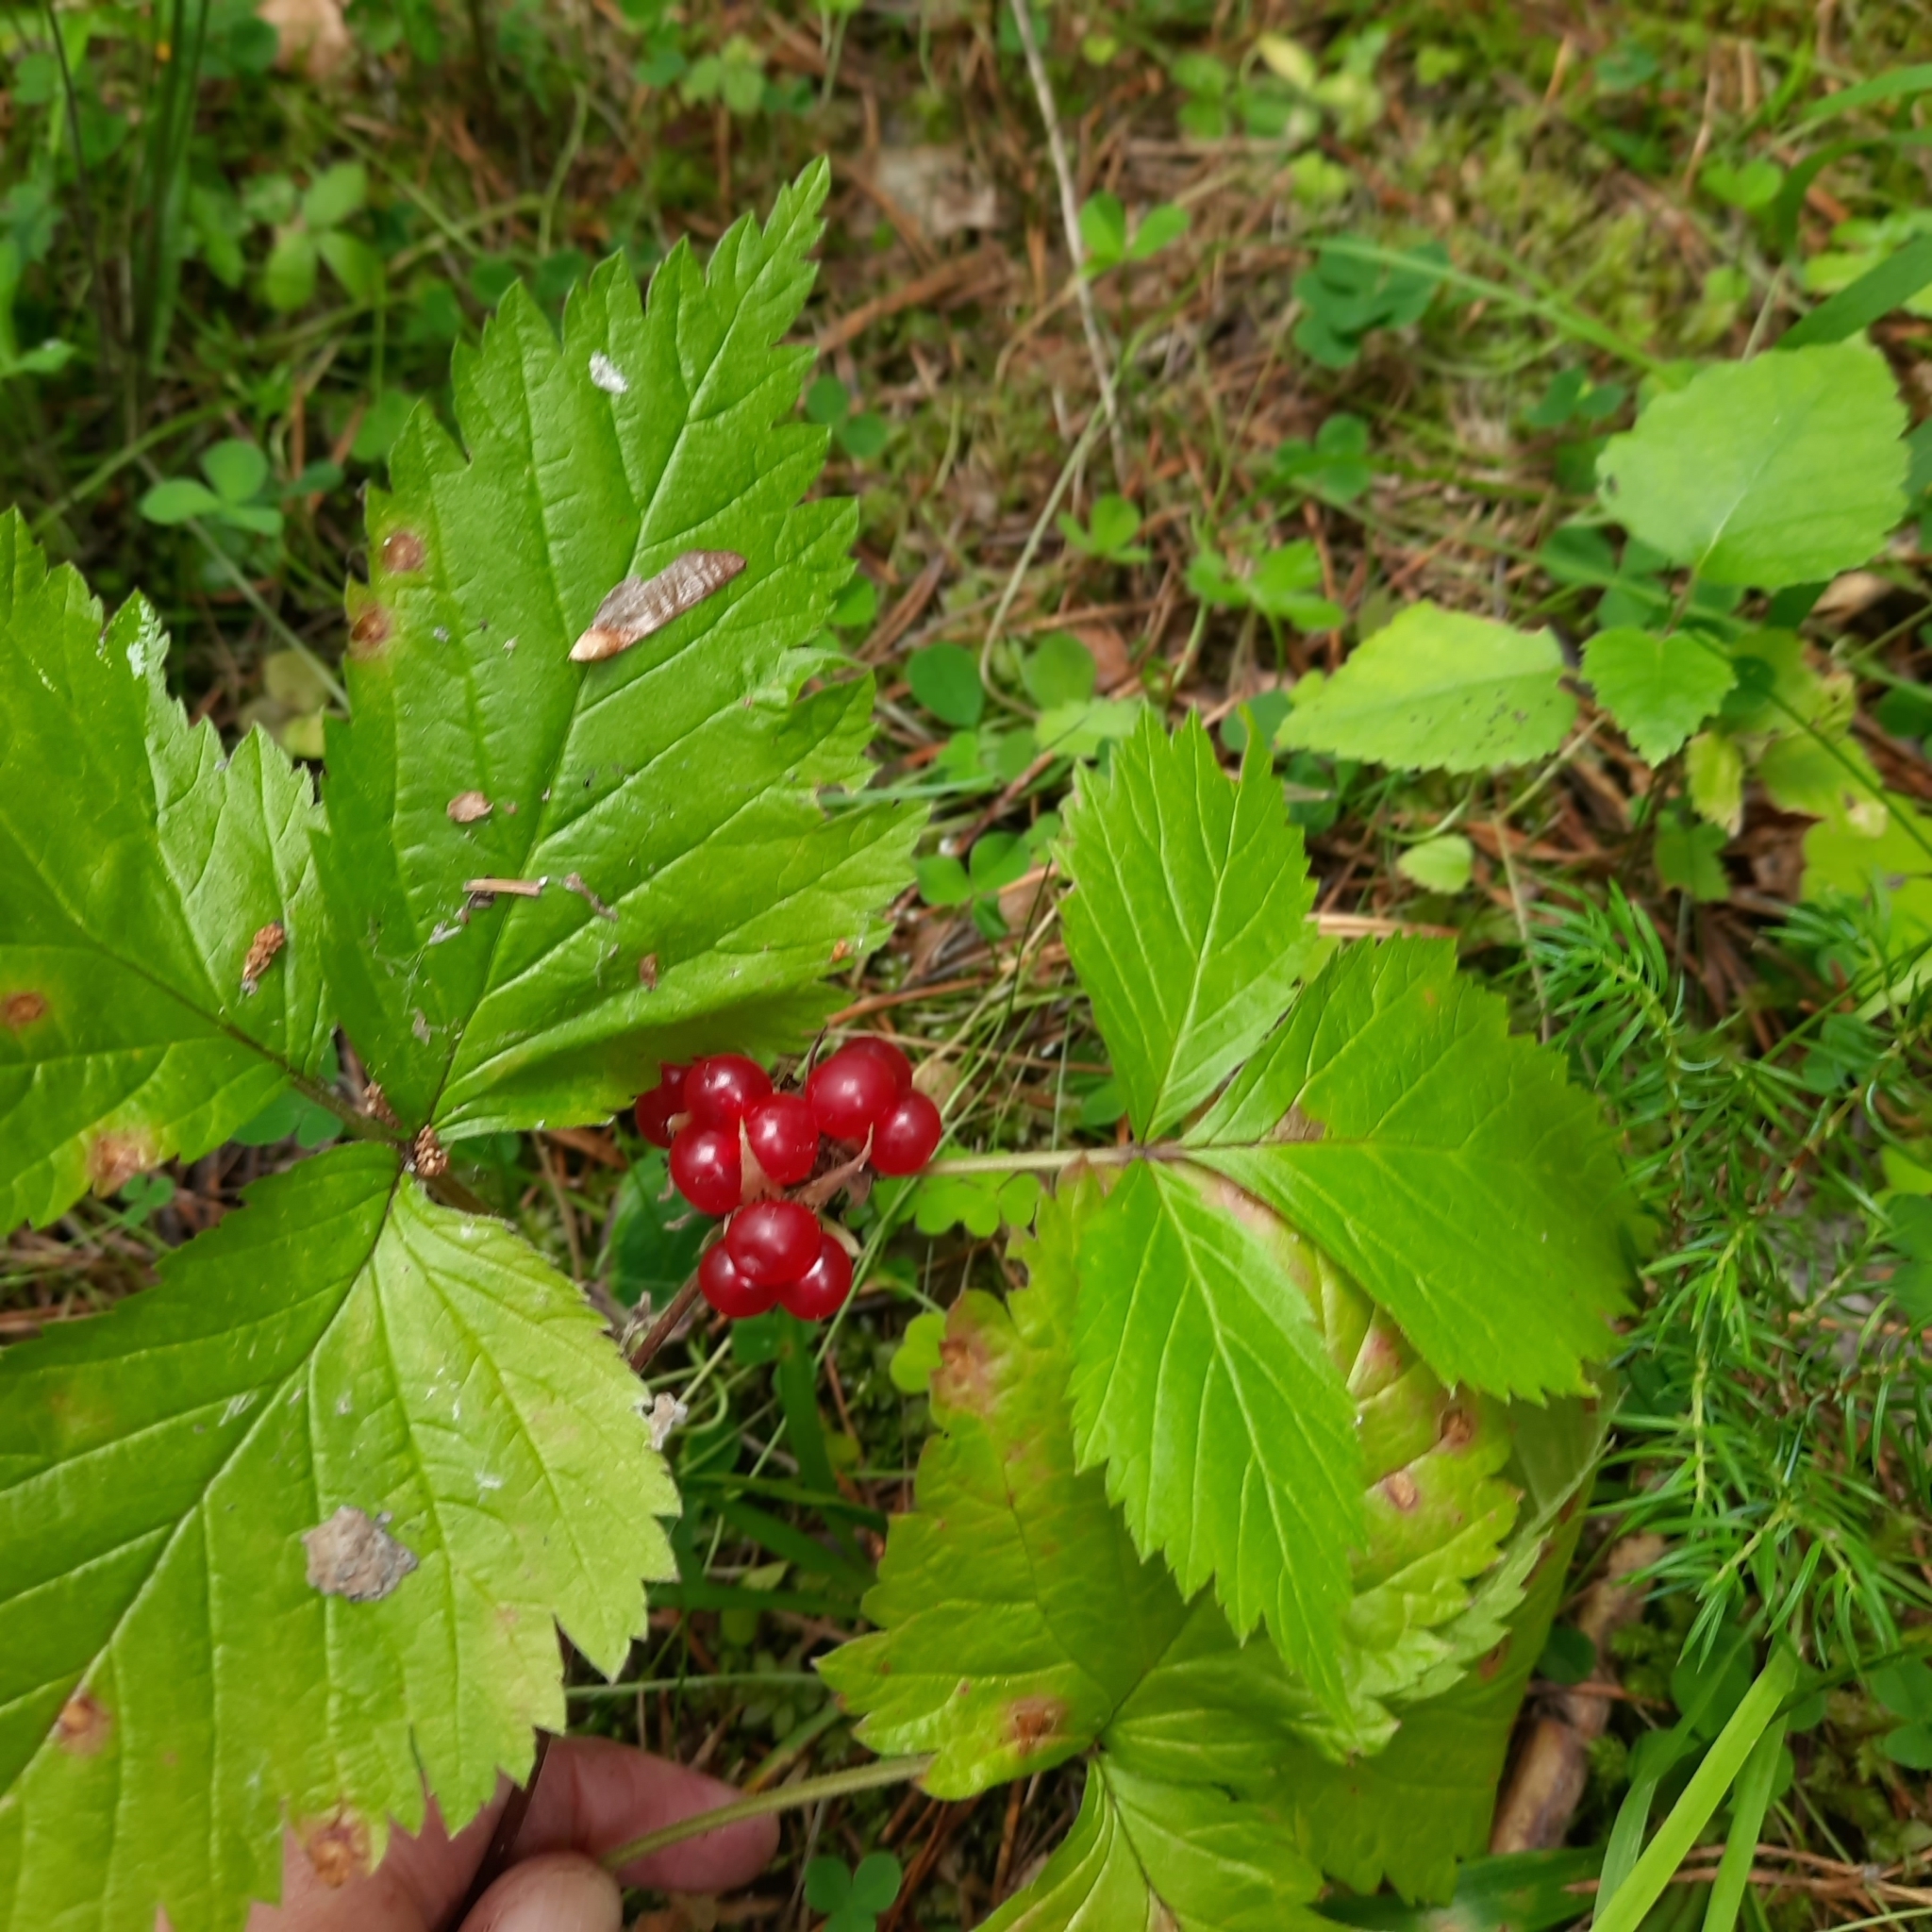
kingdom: Plantae
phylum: Tracheophyta
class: Magnoliopsida
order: Rosales
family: Rosaceae
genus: Rubus
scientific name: Rubus saxatilis
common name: Stone bramble
